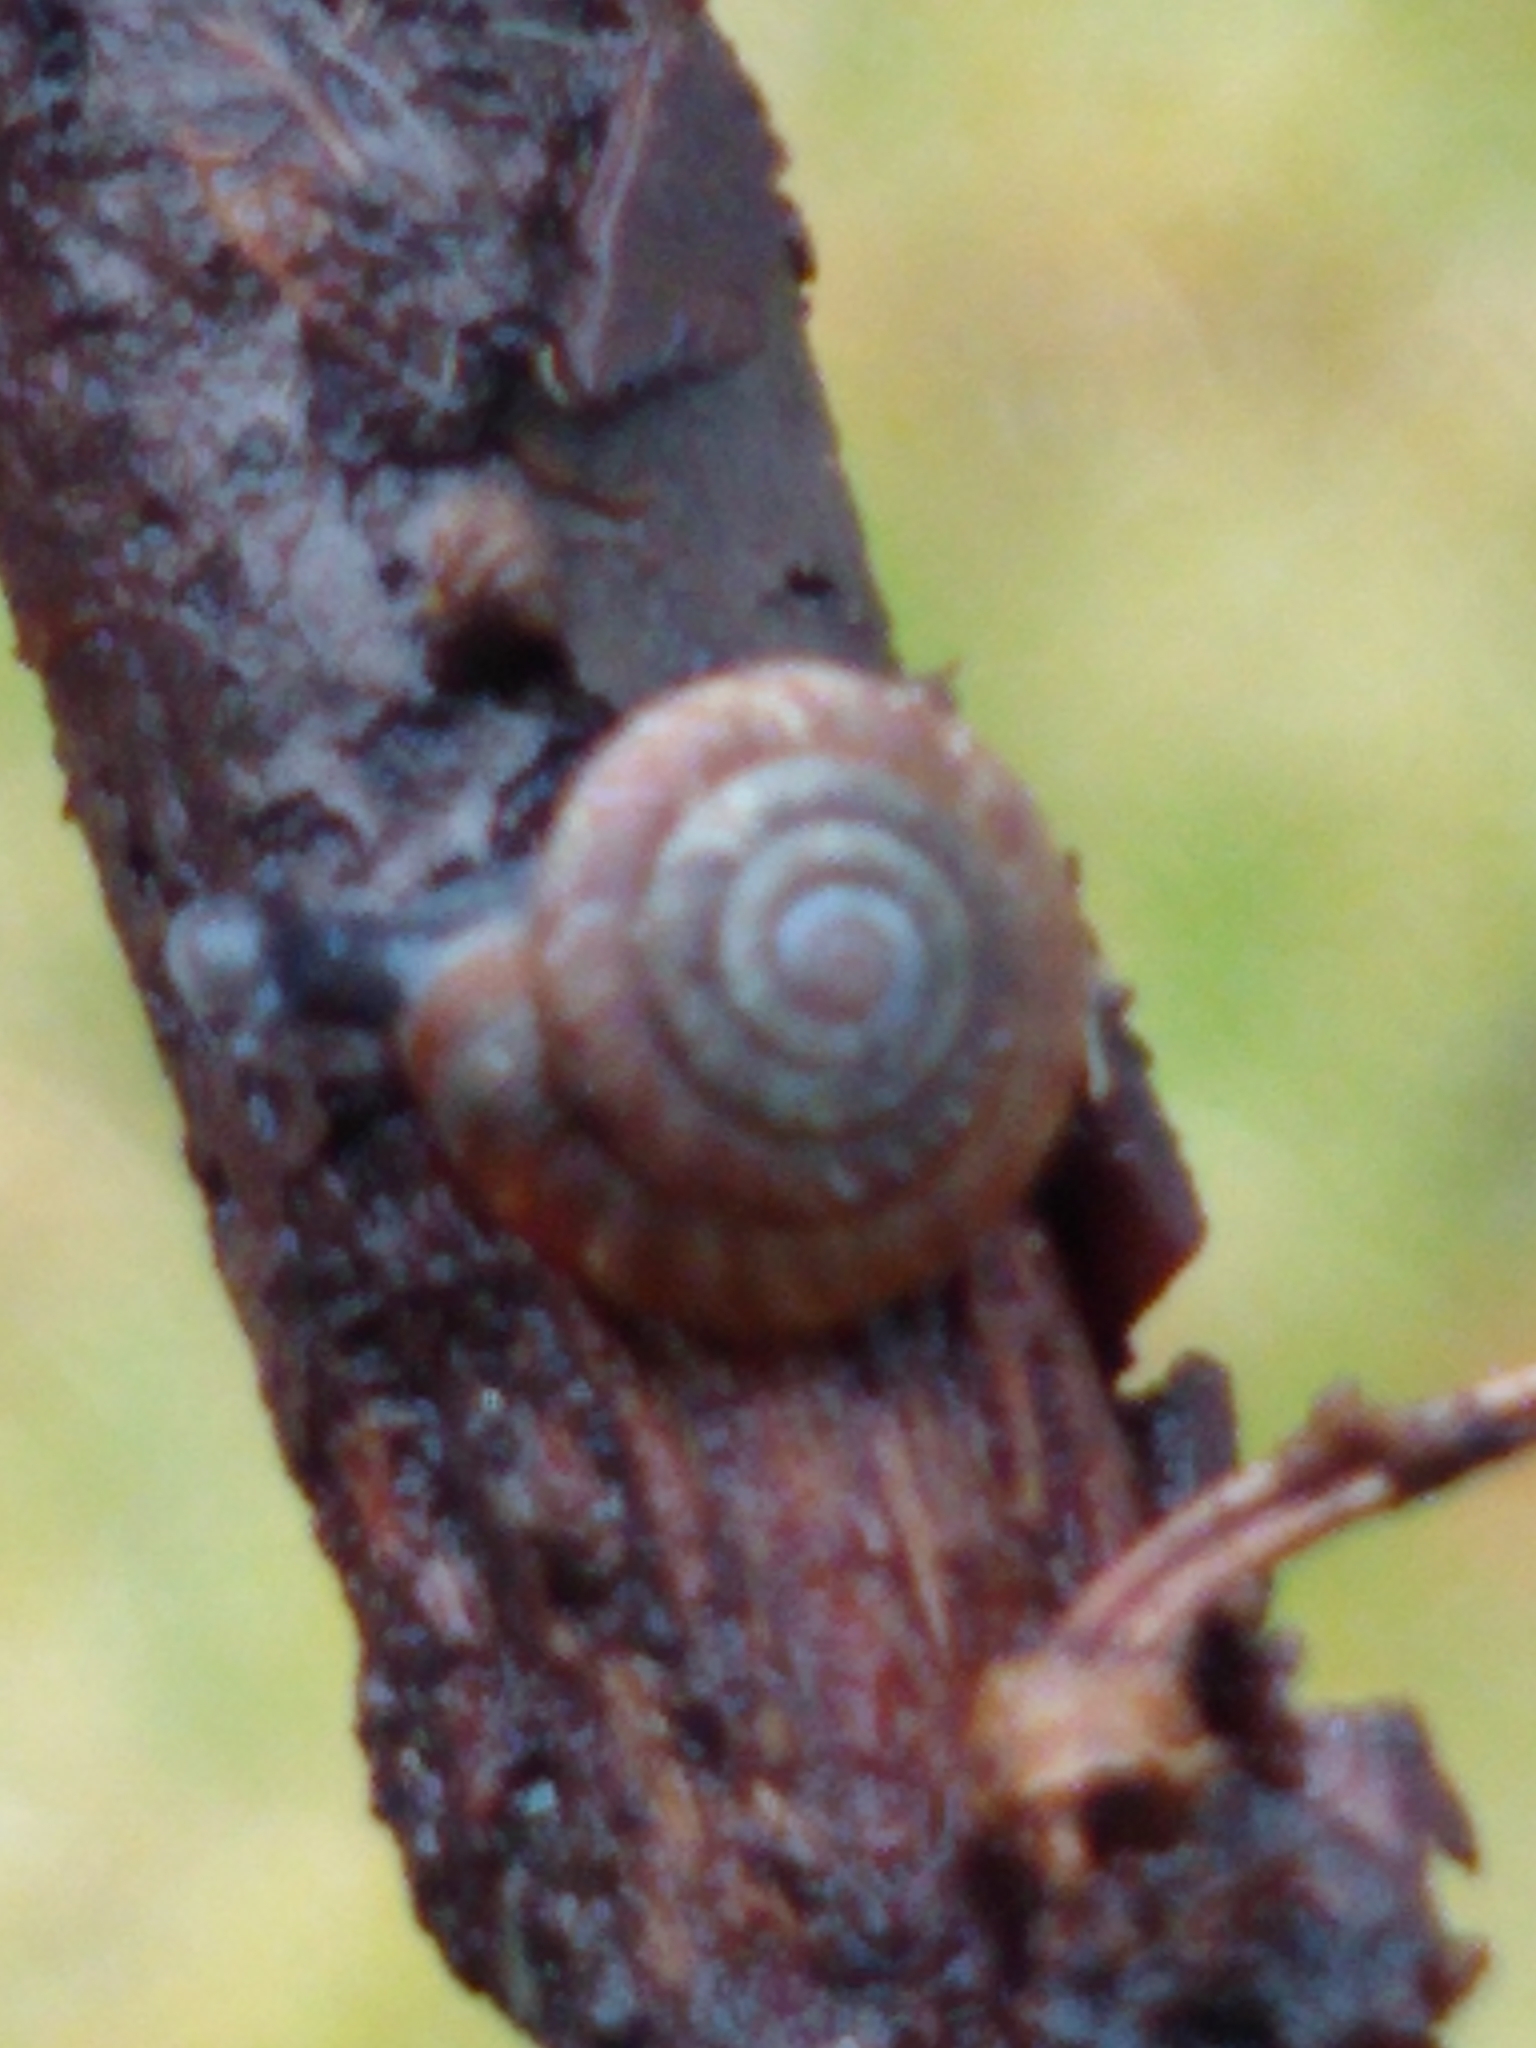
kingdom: Animalia
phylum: Mollusca
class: Gastropoda
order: Stylommatophora
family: Discidae
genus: Discus
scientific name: Discus rotundatus
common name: Rounded snail
